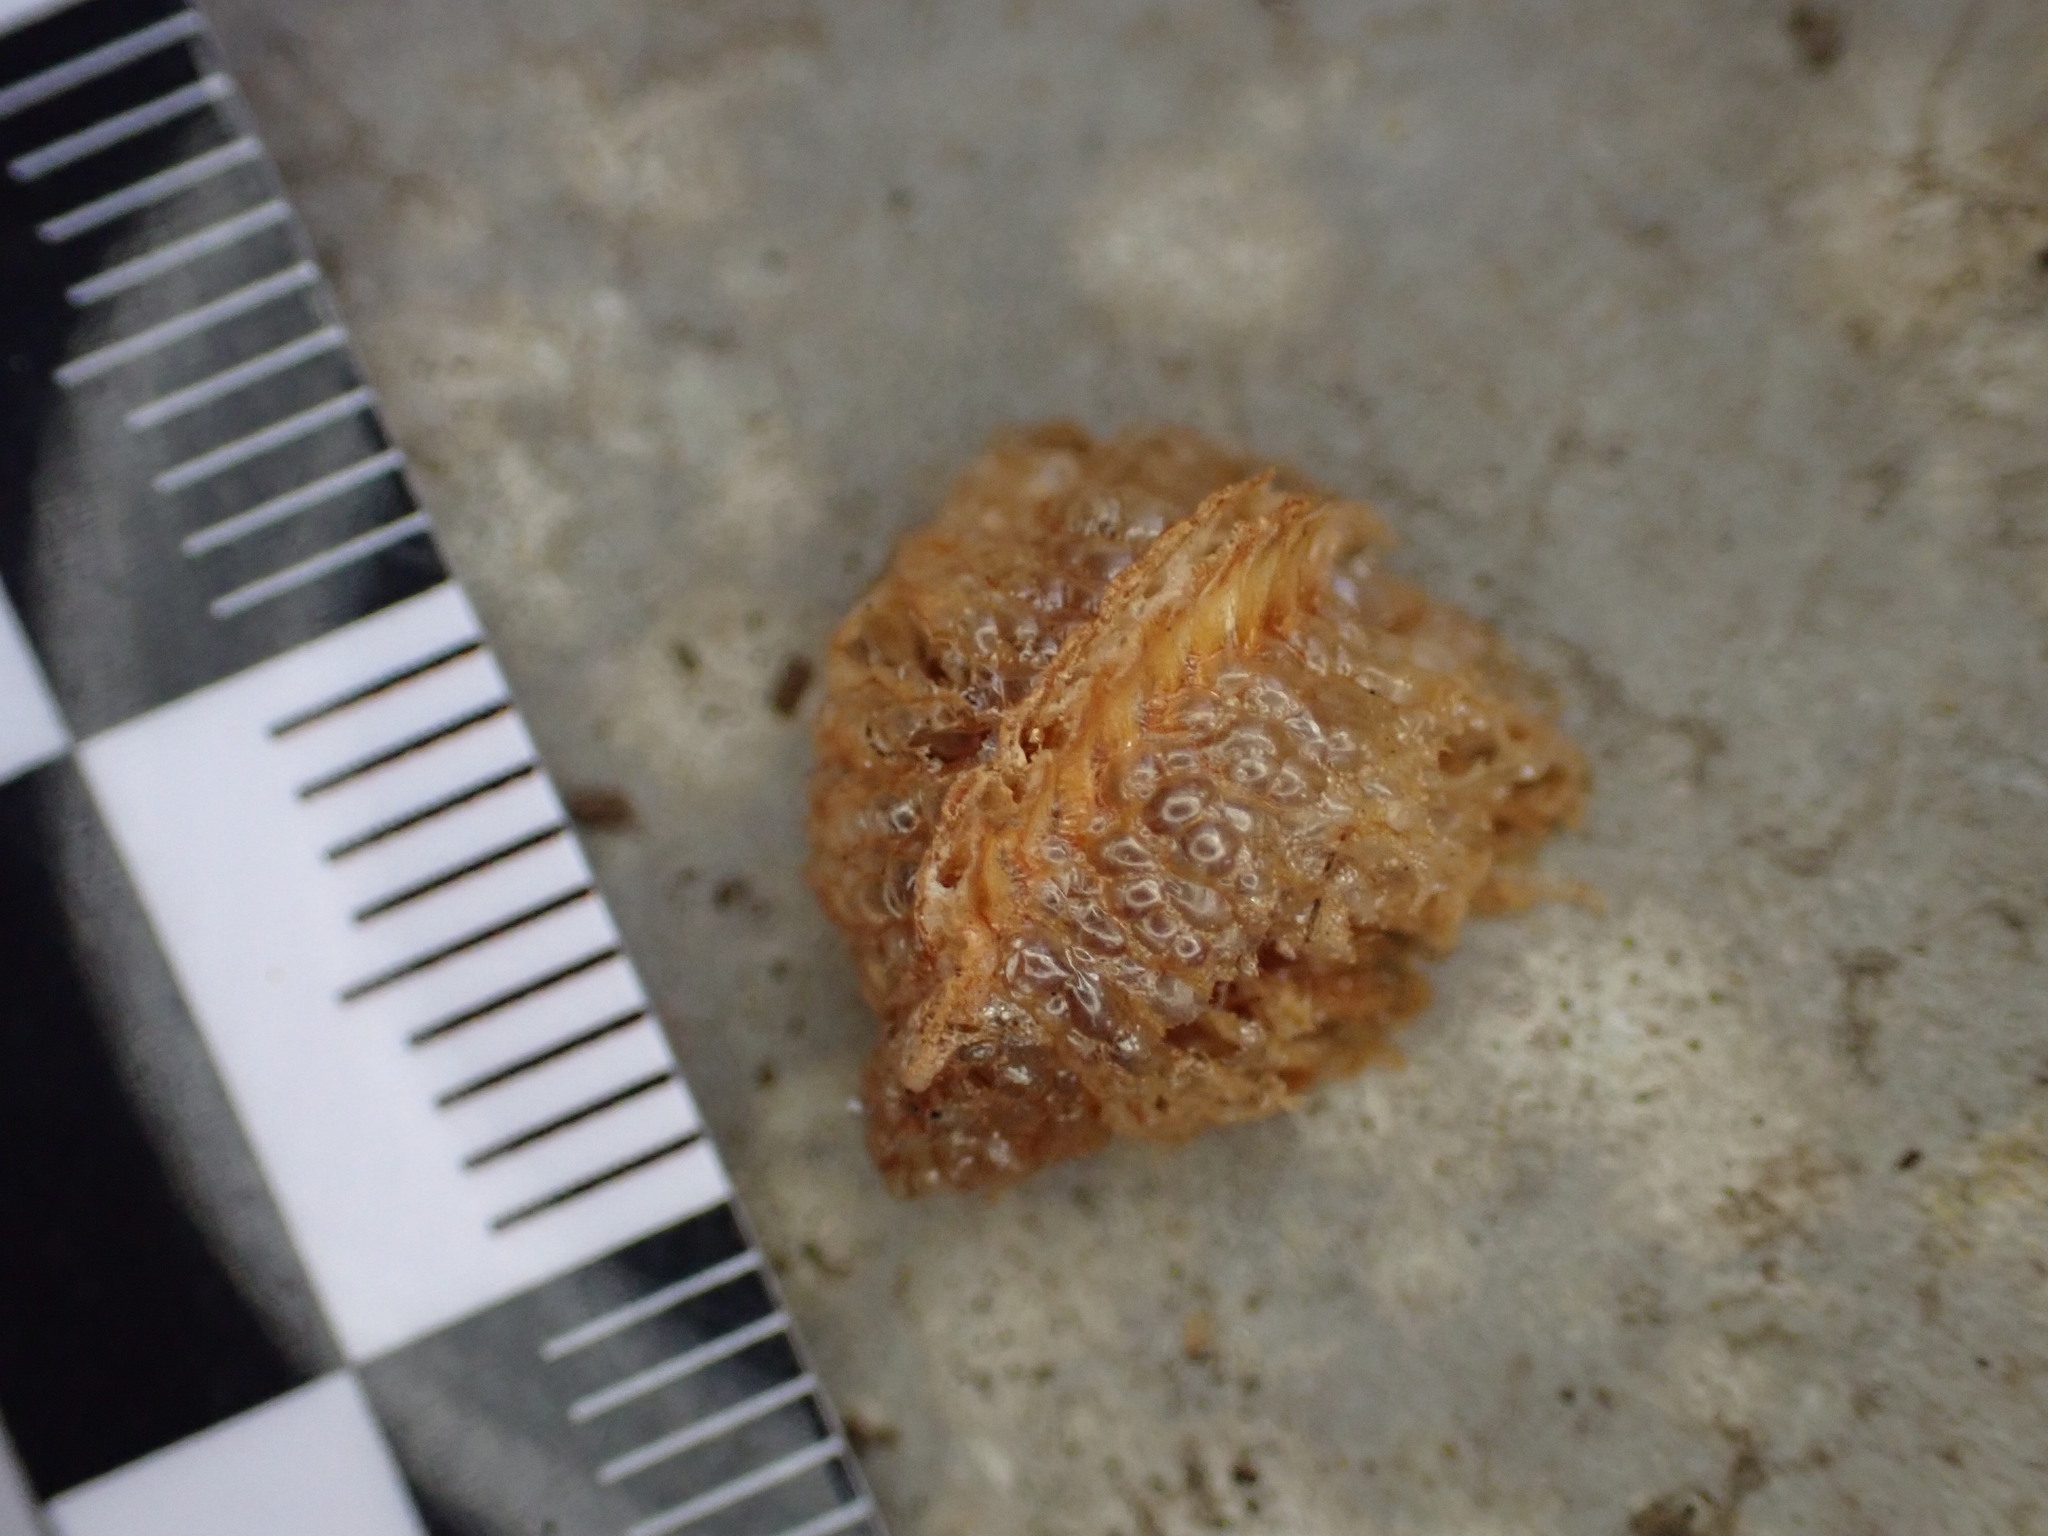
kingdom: Animalia
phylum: Arthropoda
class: Insecta
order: Mantodea
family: Amelidae
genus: Ameles
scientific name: Ameles spallanzania
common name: European dwarf mantis
